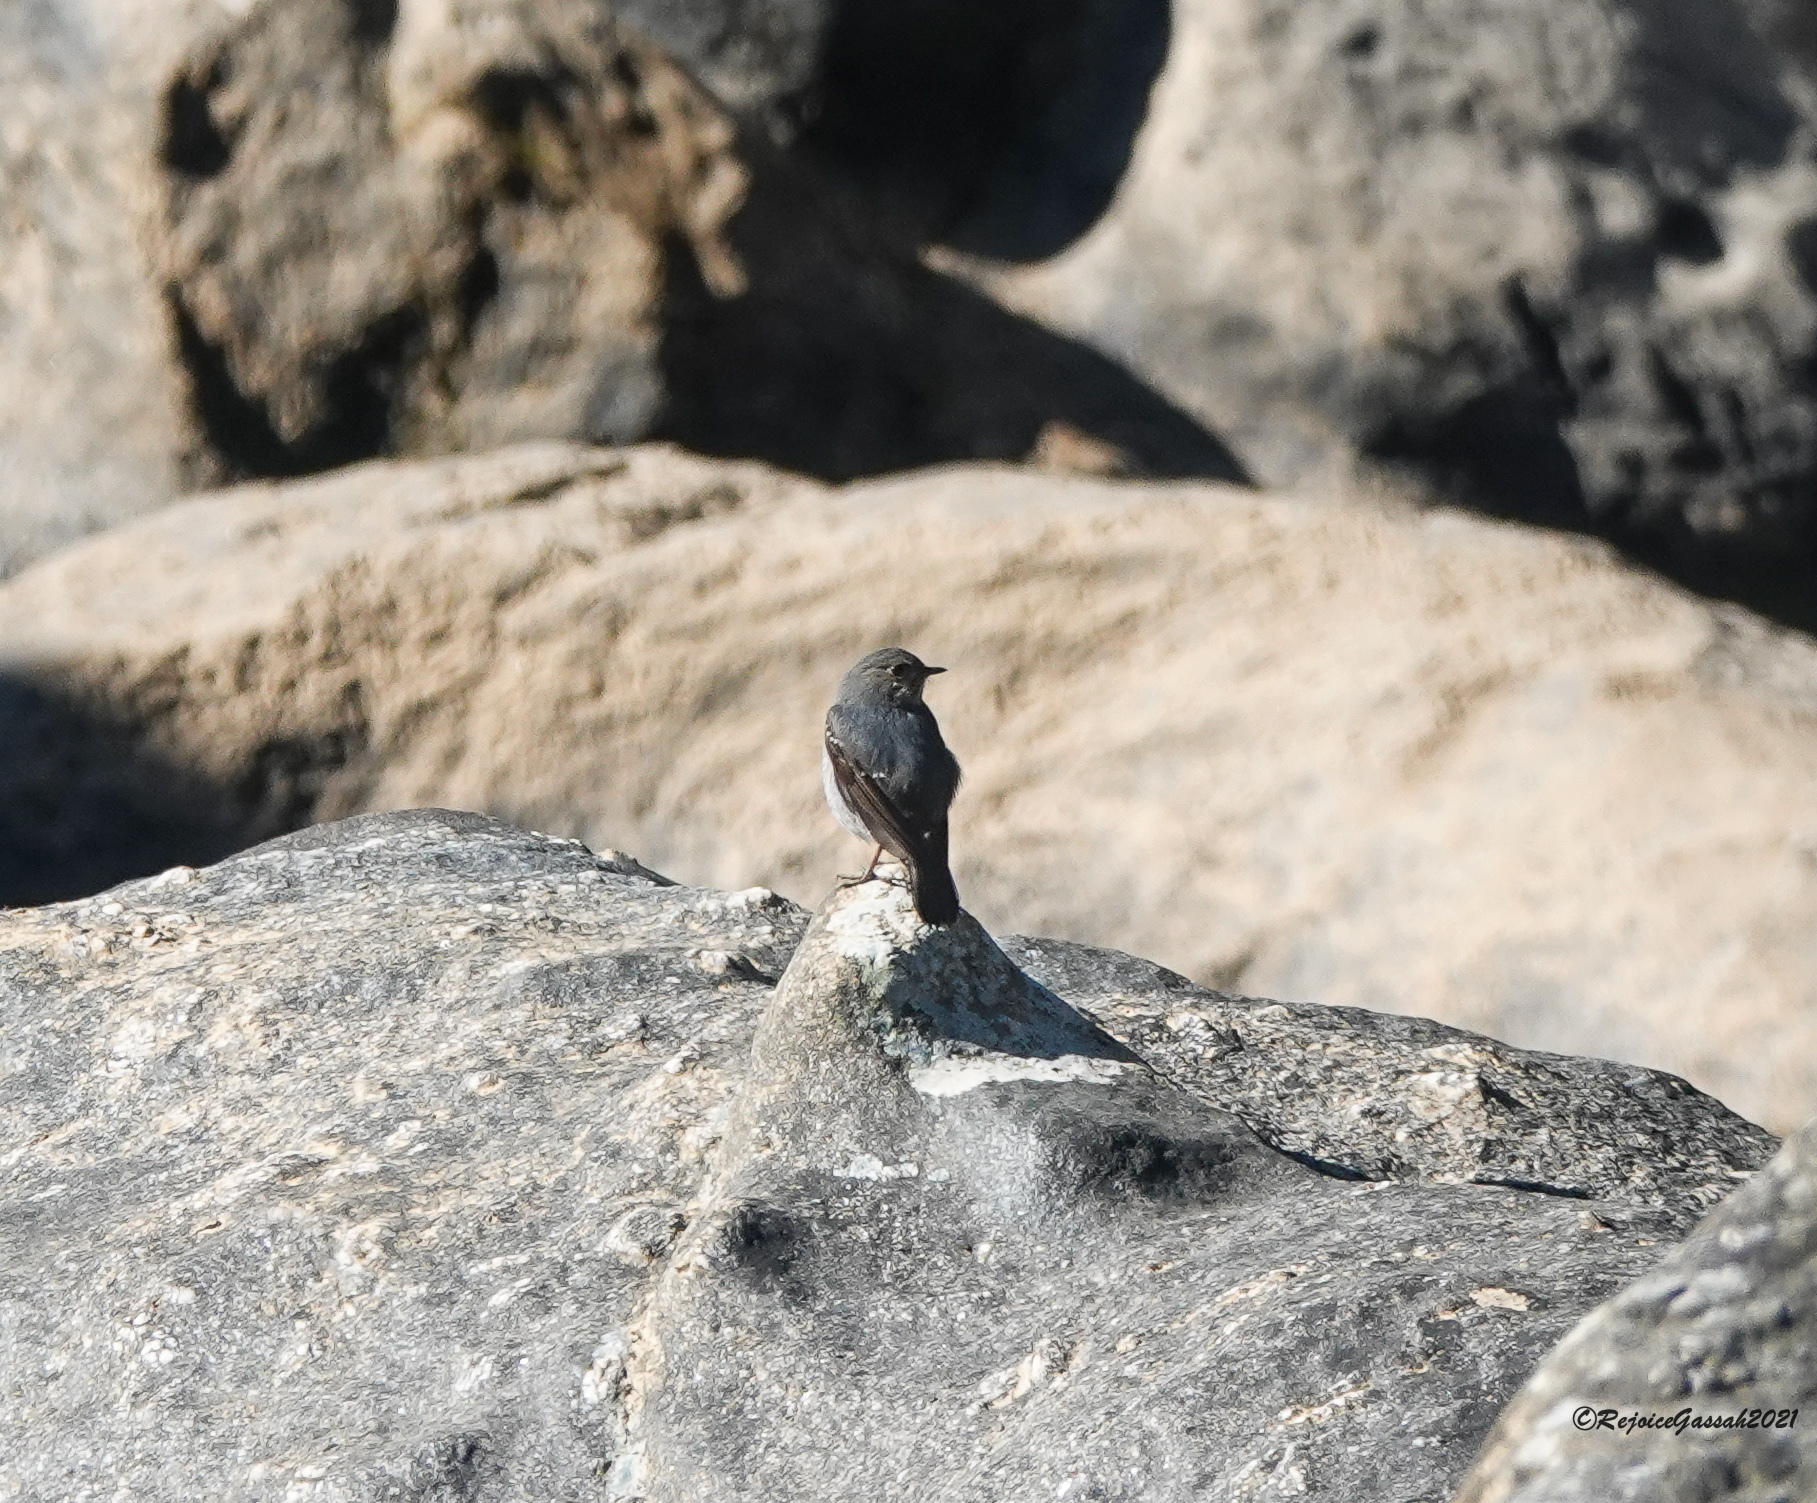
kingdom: Animalia
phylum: Chordata
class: Aves
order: Passeriformes
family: Muscicapidae
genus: Phoenicurus
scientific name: Phoenicurus fuliginosus
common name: Plumbeous water redstart
